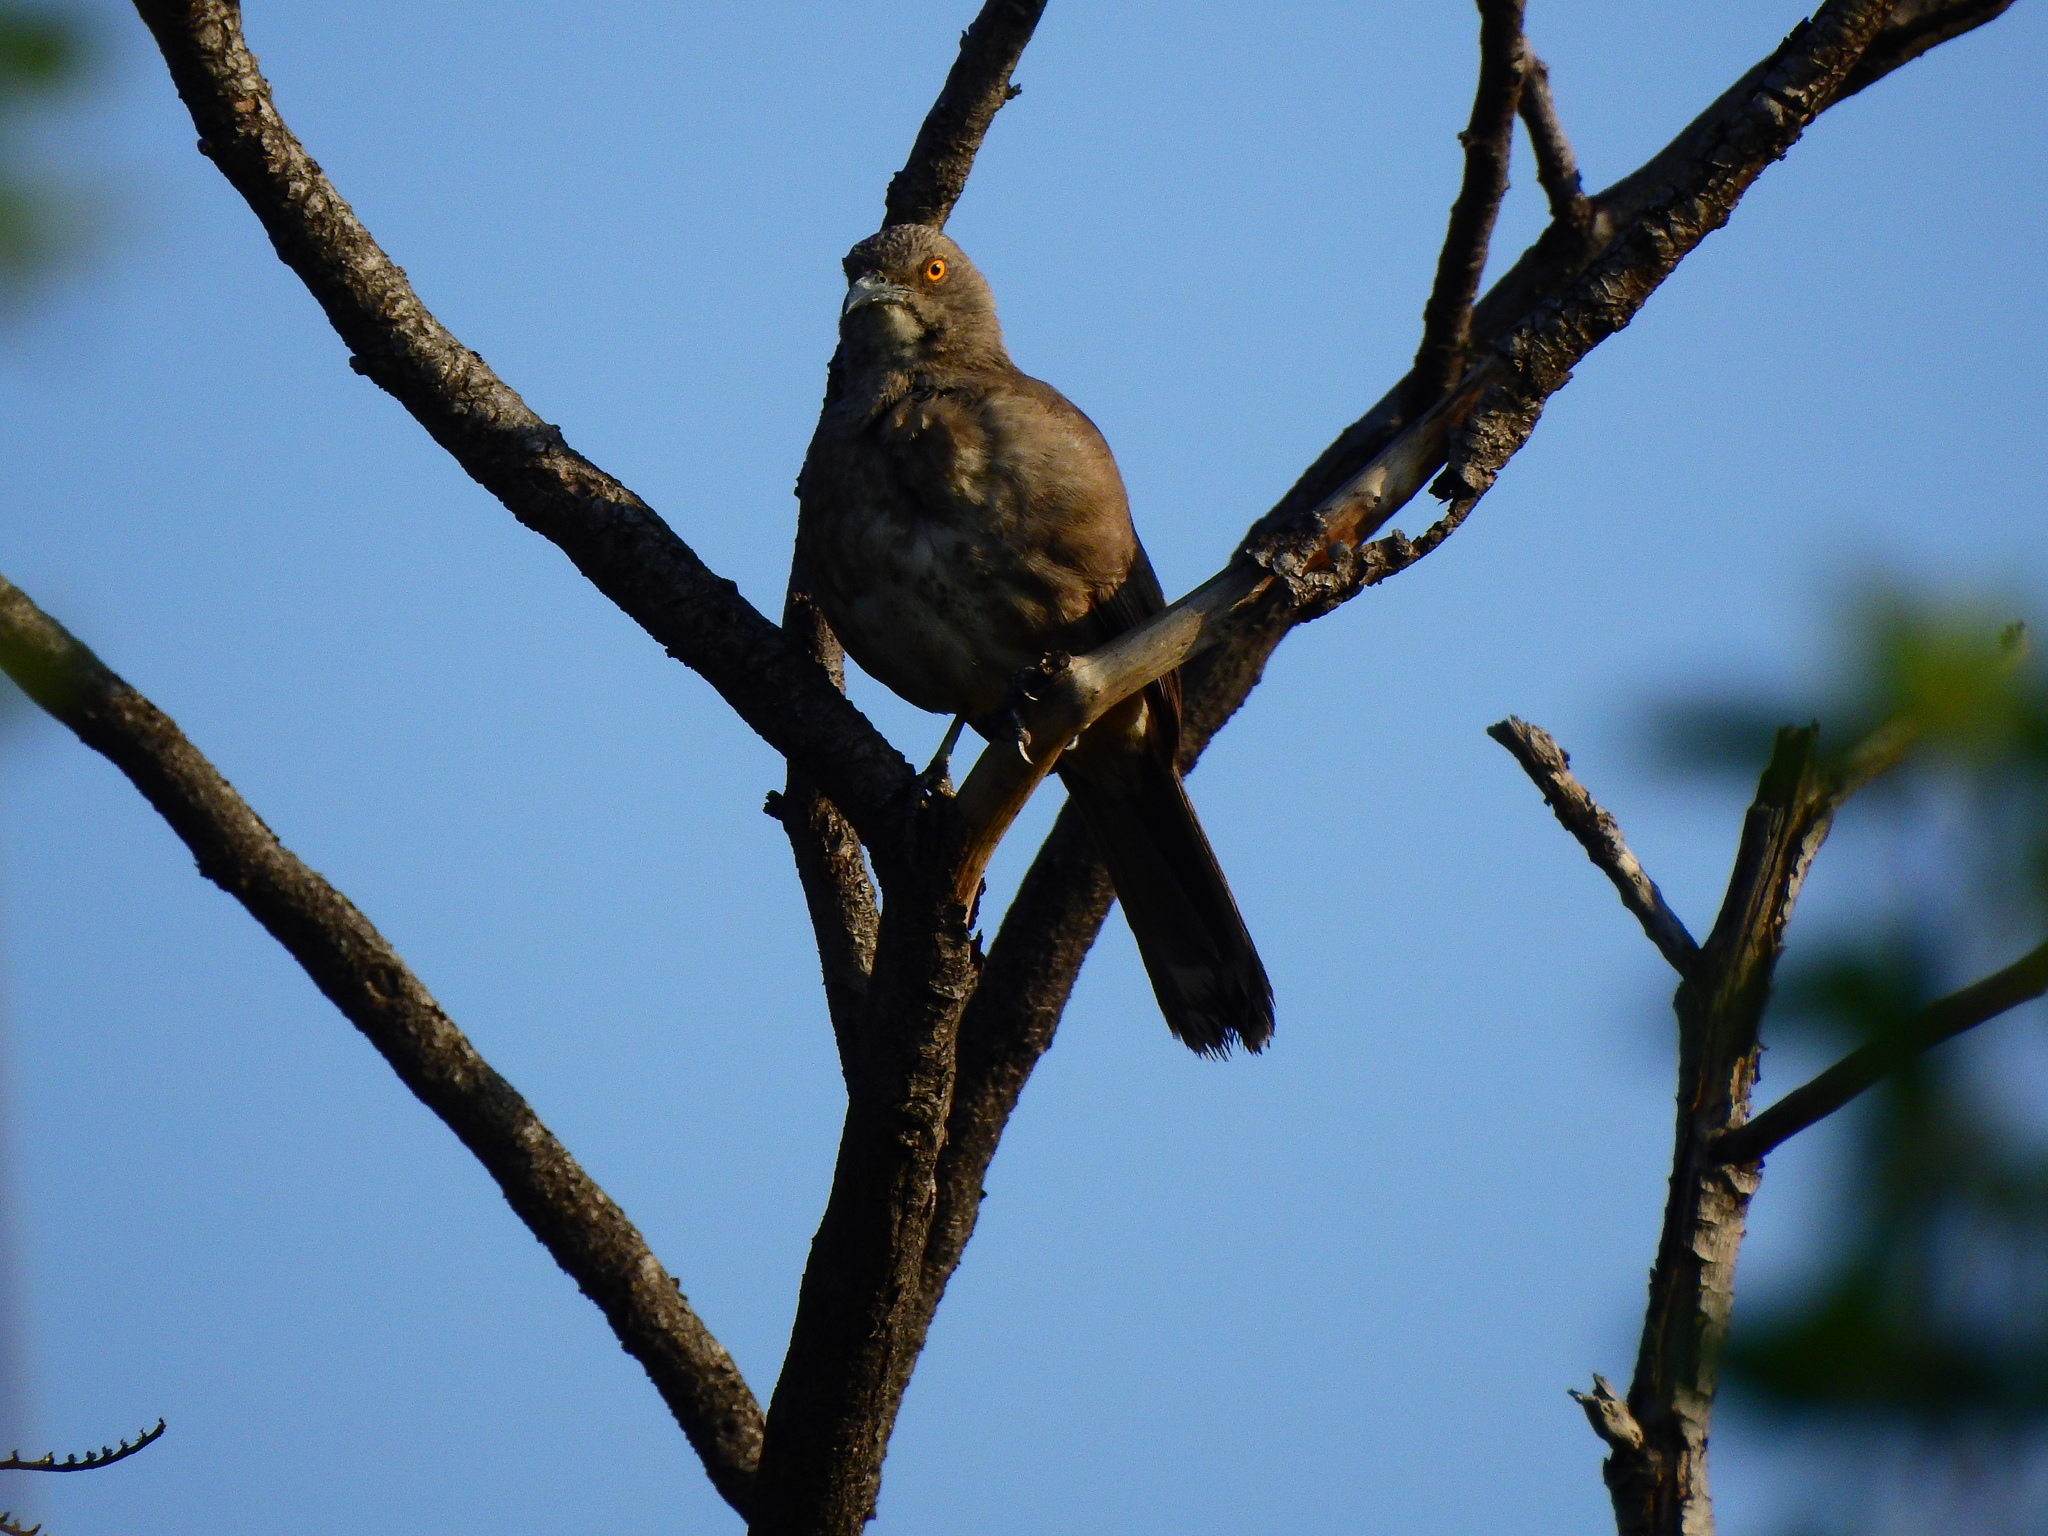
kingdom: Animalia
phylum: Chordata
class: Aves
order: Passeriformes
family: Mimidae
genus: Toxostoma
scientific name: Toxostoma curvirostre
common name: Curve-billed thrasher
